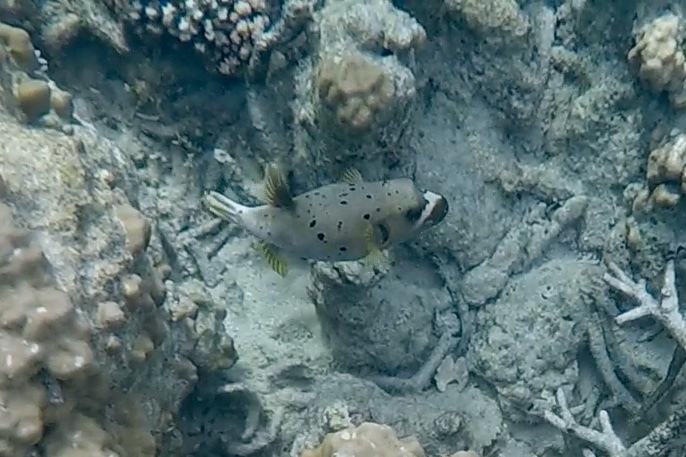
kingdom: Animalia
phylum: Chordata
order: Tetraodontiformes
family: Tetraodontidae
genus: Arothron
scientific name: Arothron nigropunctatus
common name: Black spotted blow fish
